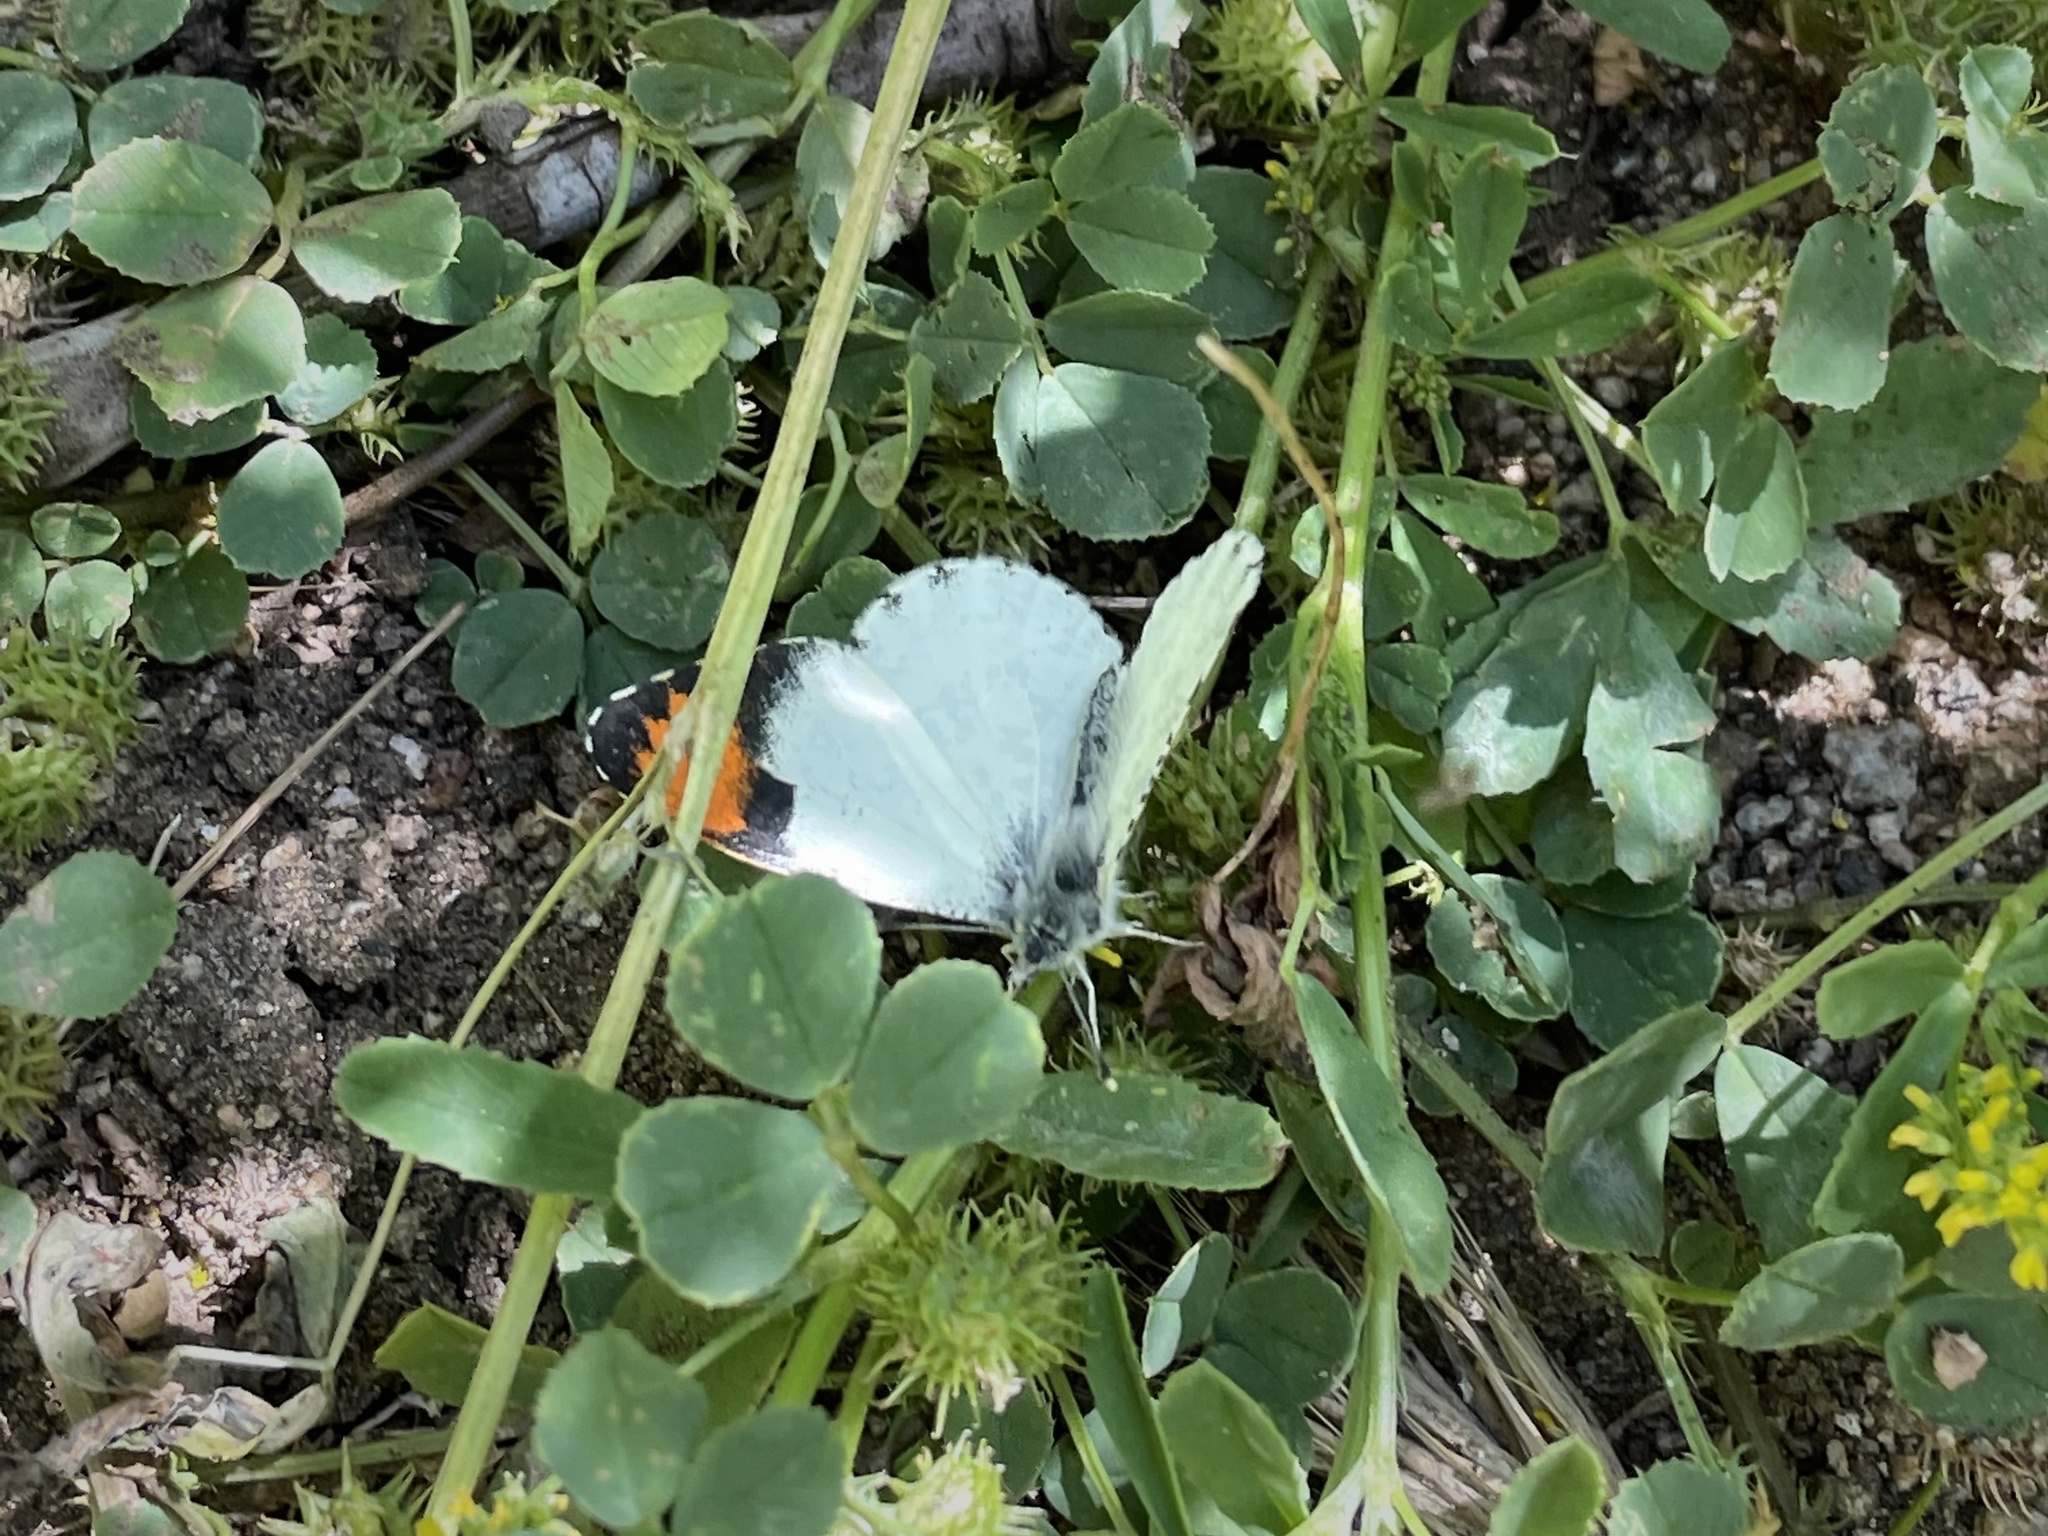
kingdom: Animalia
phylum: Arthropoda
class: Insecta
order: Lepidoptera
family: Pieridae
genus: Anthocharis
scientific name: Anthocharis sara
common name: Sara's orangetip
